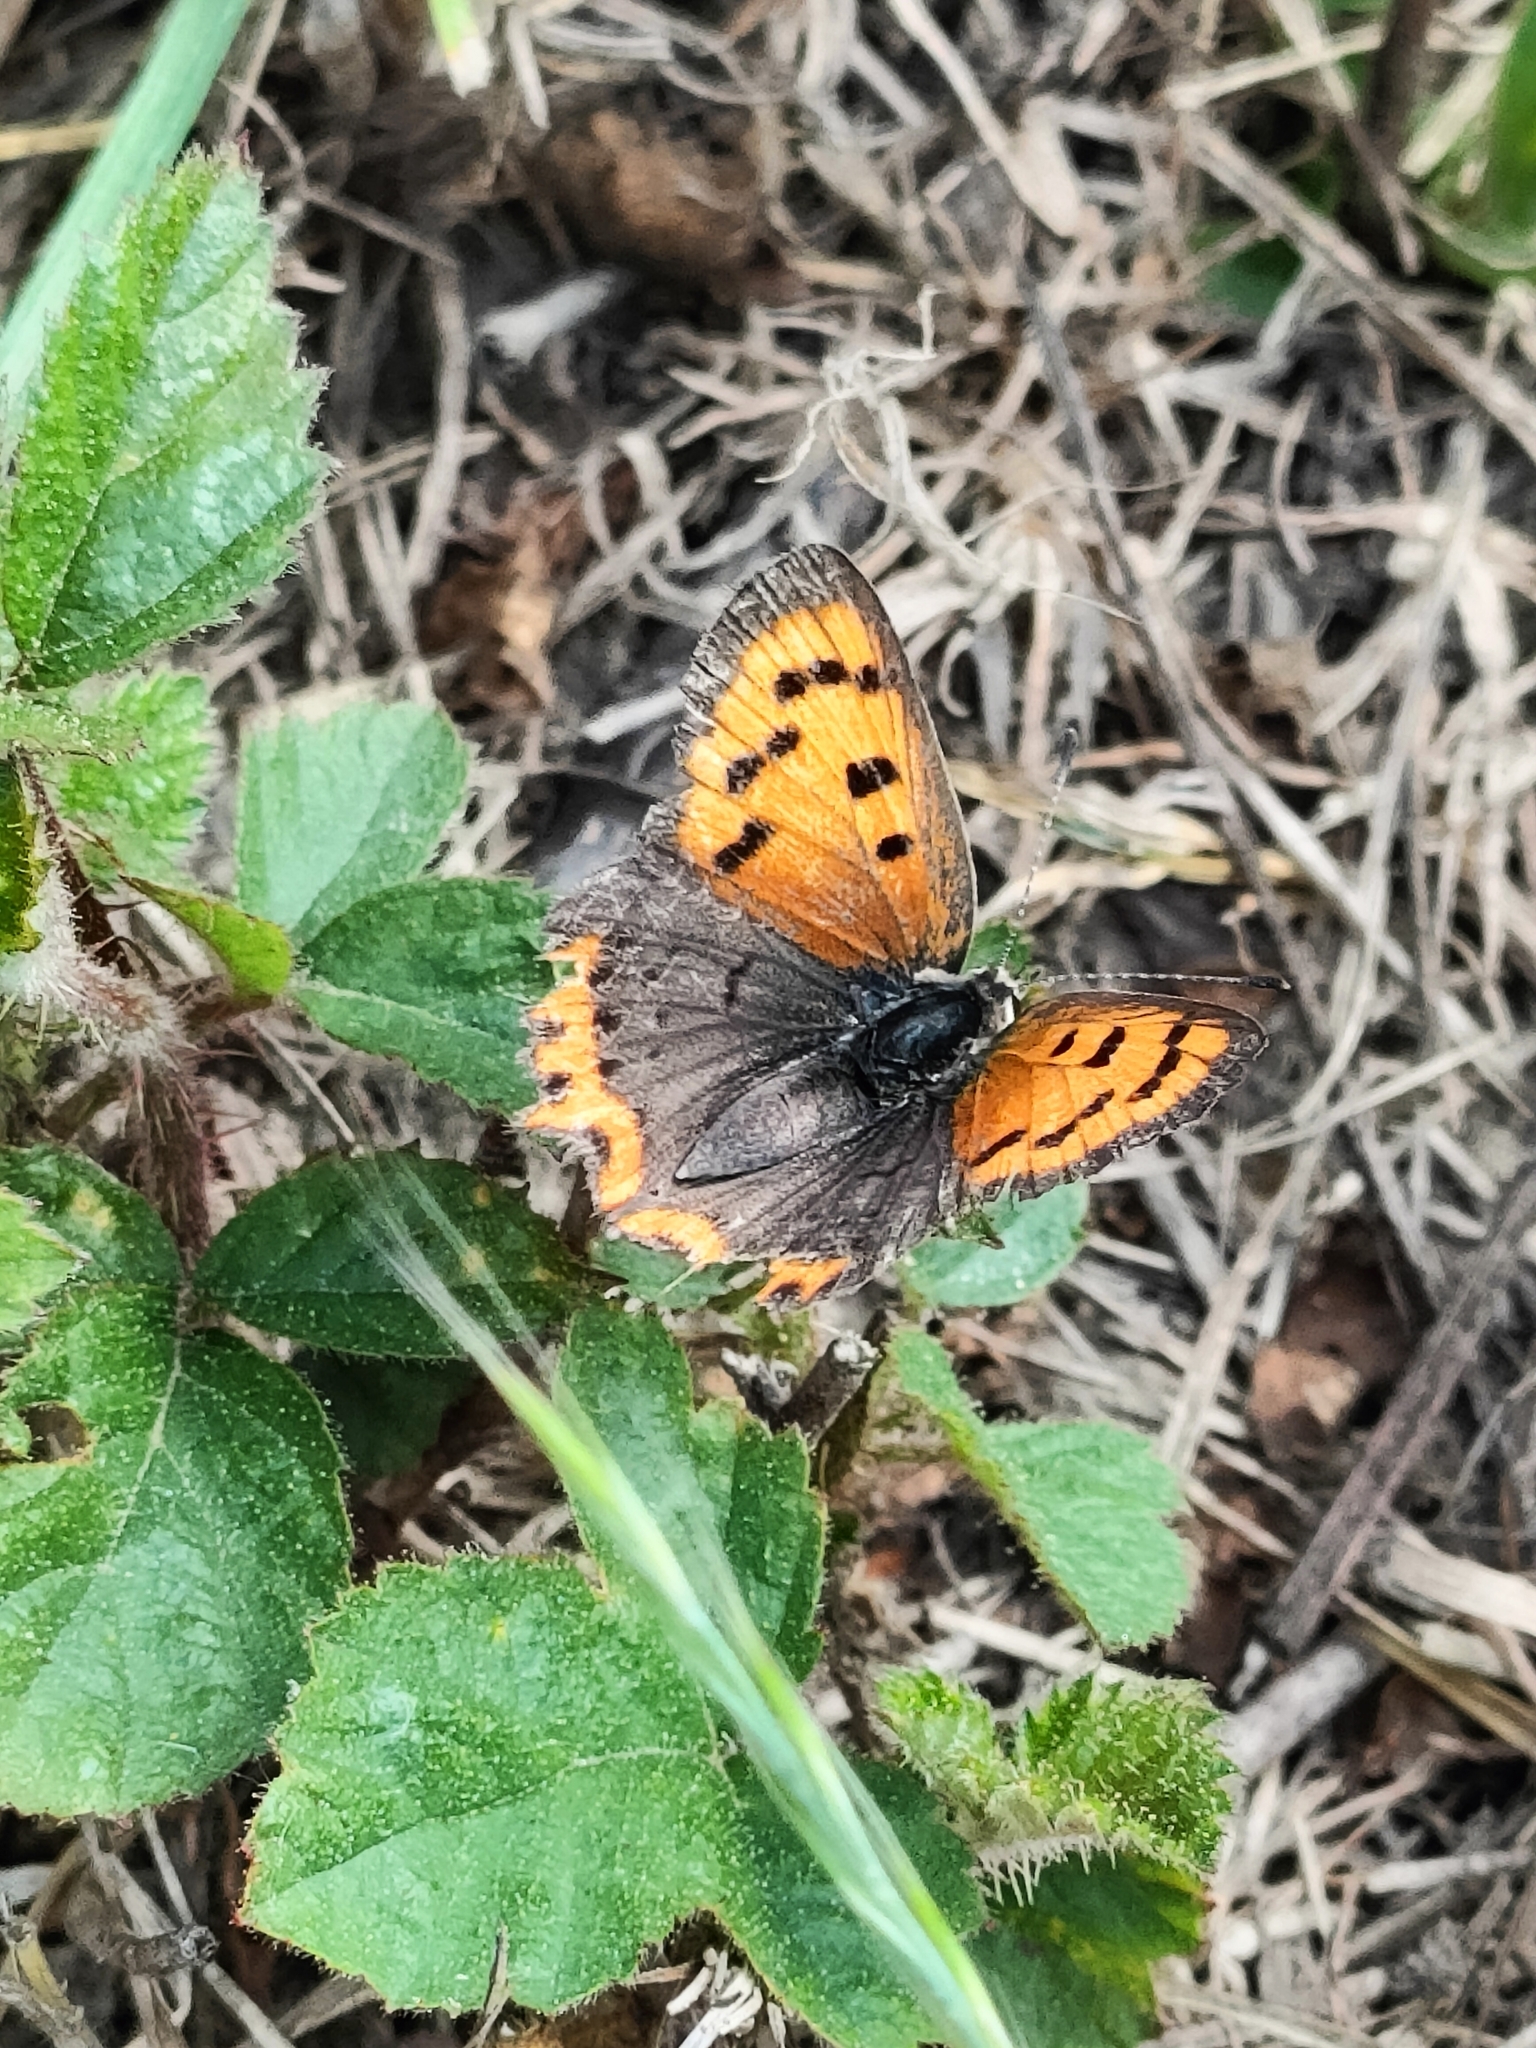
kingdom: Animalia
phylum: Arthropoda
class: Insecta
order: Lepidoptera
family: Lycaenidae
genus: Lycaena
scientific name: Lycaena phlaeas
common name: Small copper
